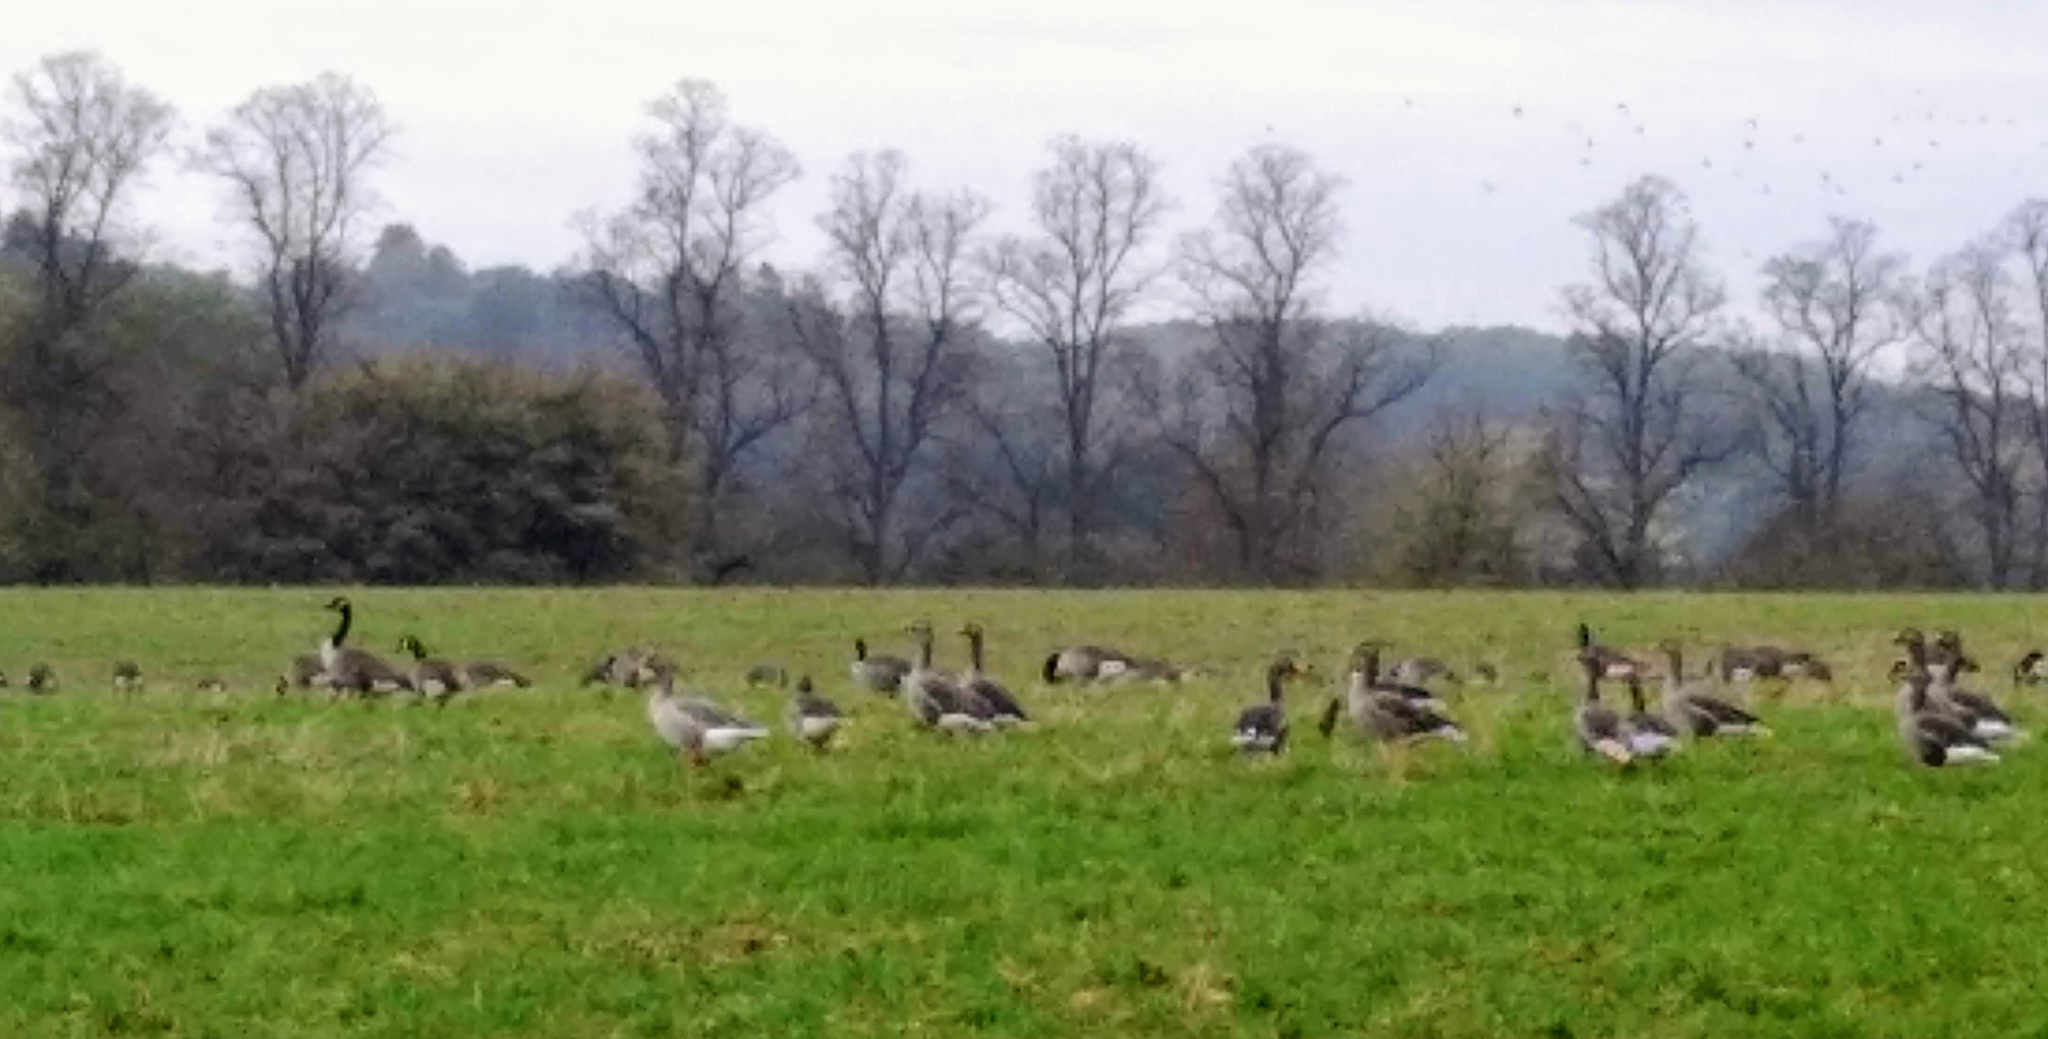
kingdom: Animalia
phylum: Chordata
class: Aves
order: Anseriformes
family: Anatidae
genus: Branta
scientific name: Branta canadensis
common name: Canada goose
